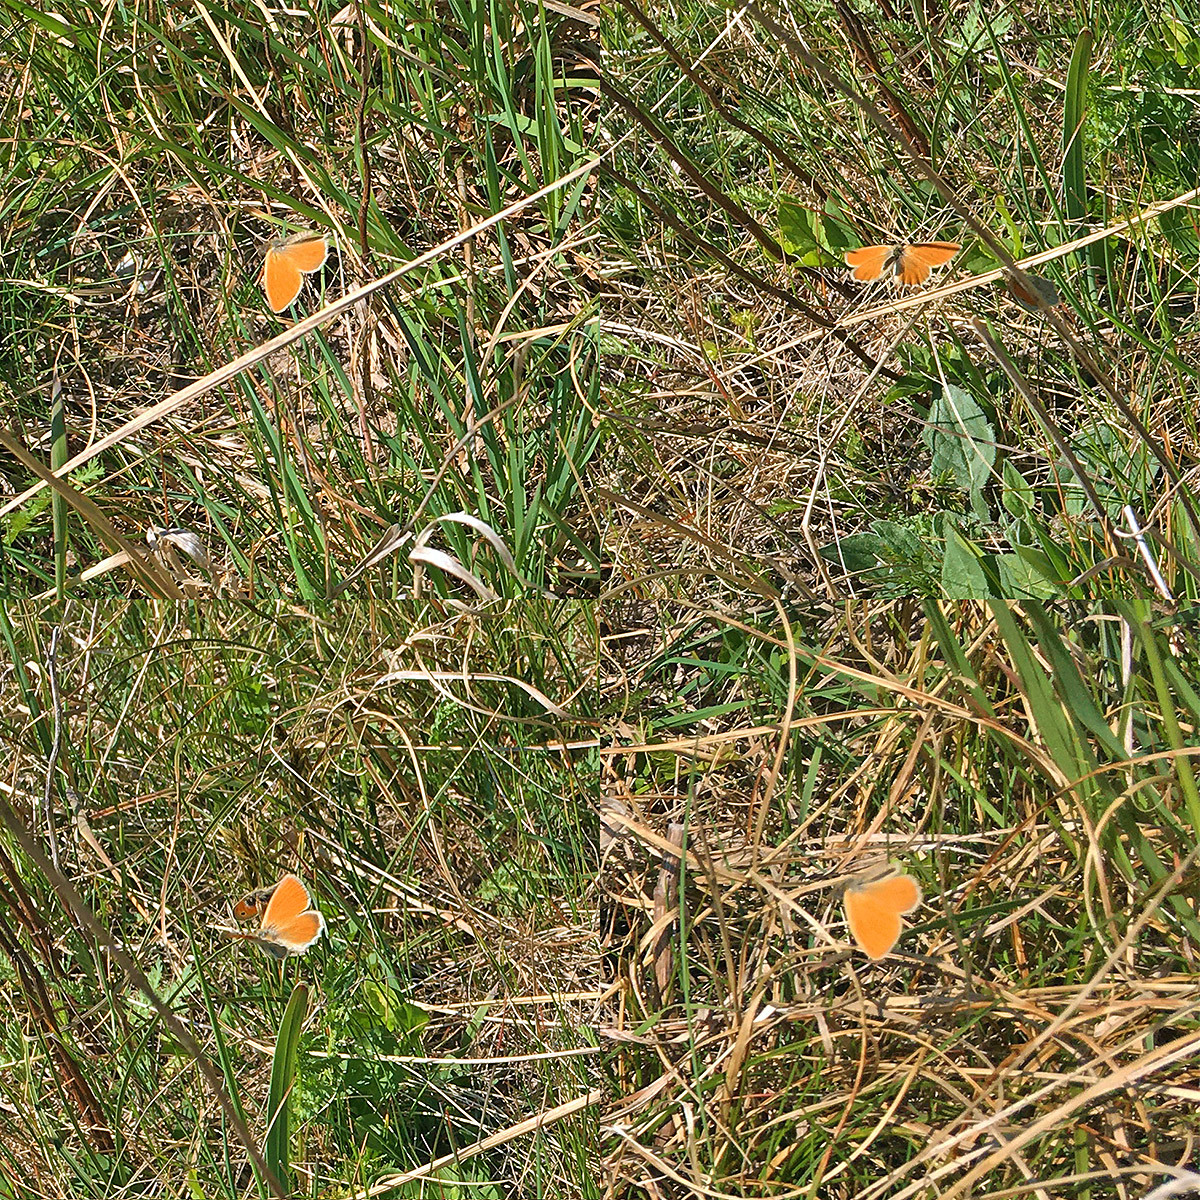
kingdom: Animalia
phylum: Arthropoda
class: Insecta
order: Lepidoptera
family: Nymphalidae
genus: Coenonympha
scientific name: Coenonympha pamphilus
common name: Small heath
